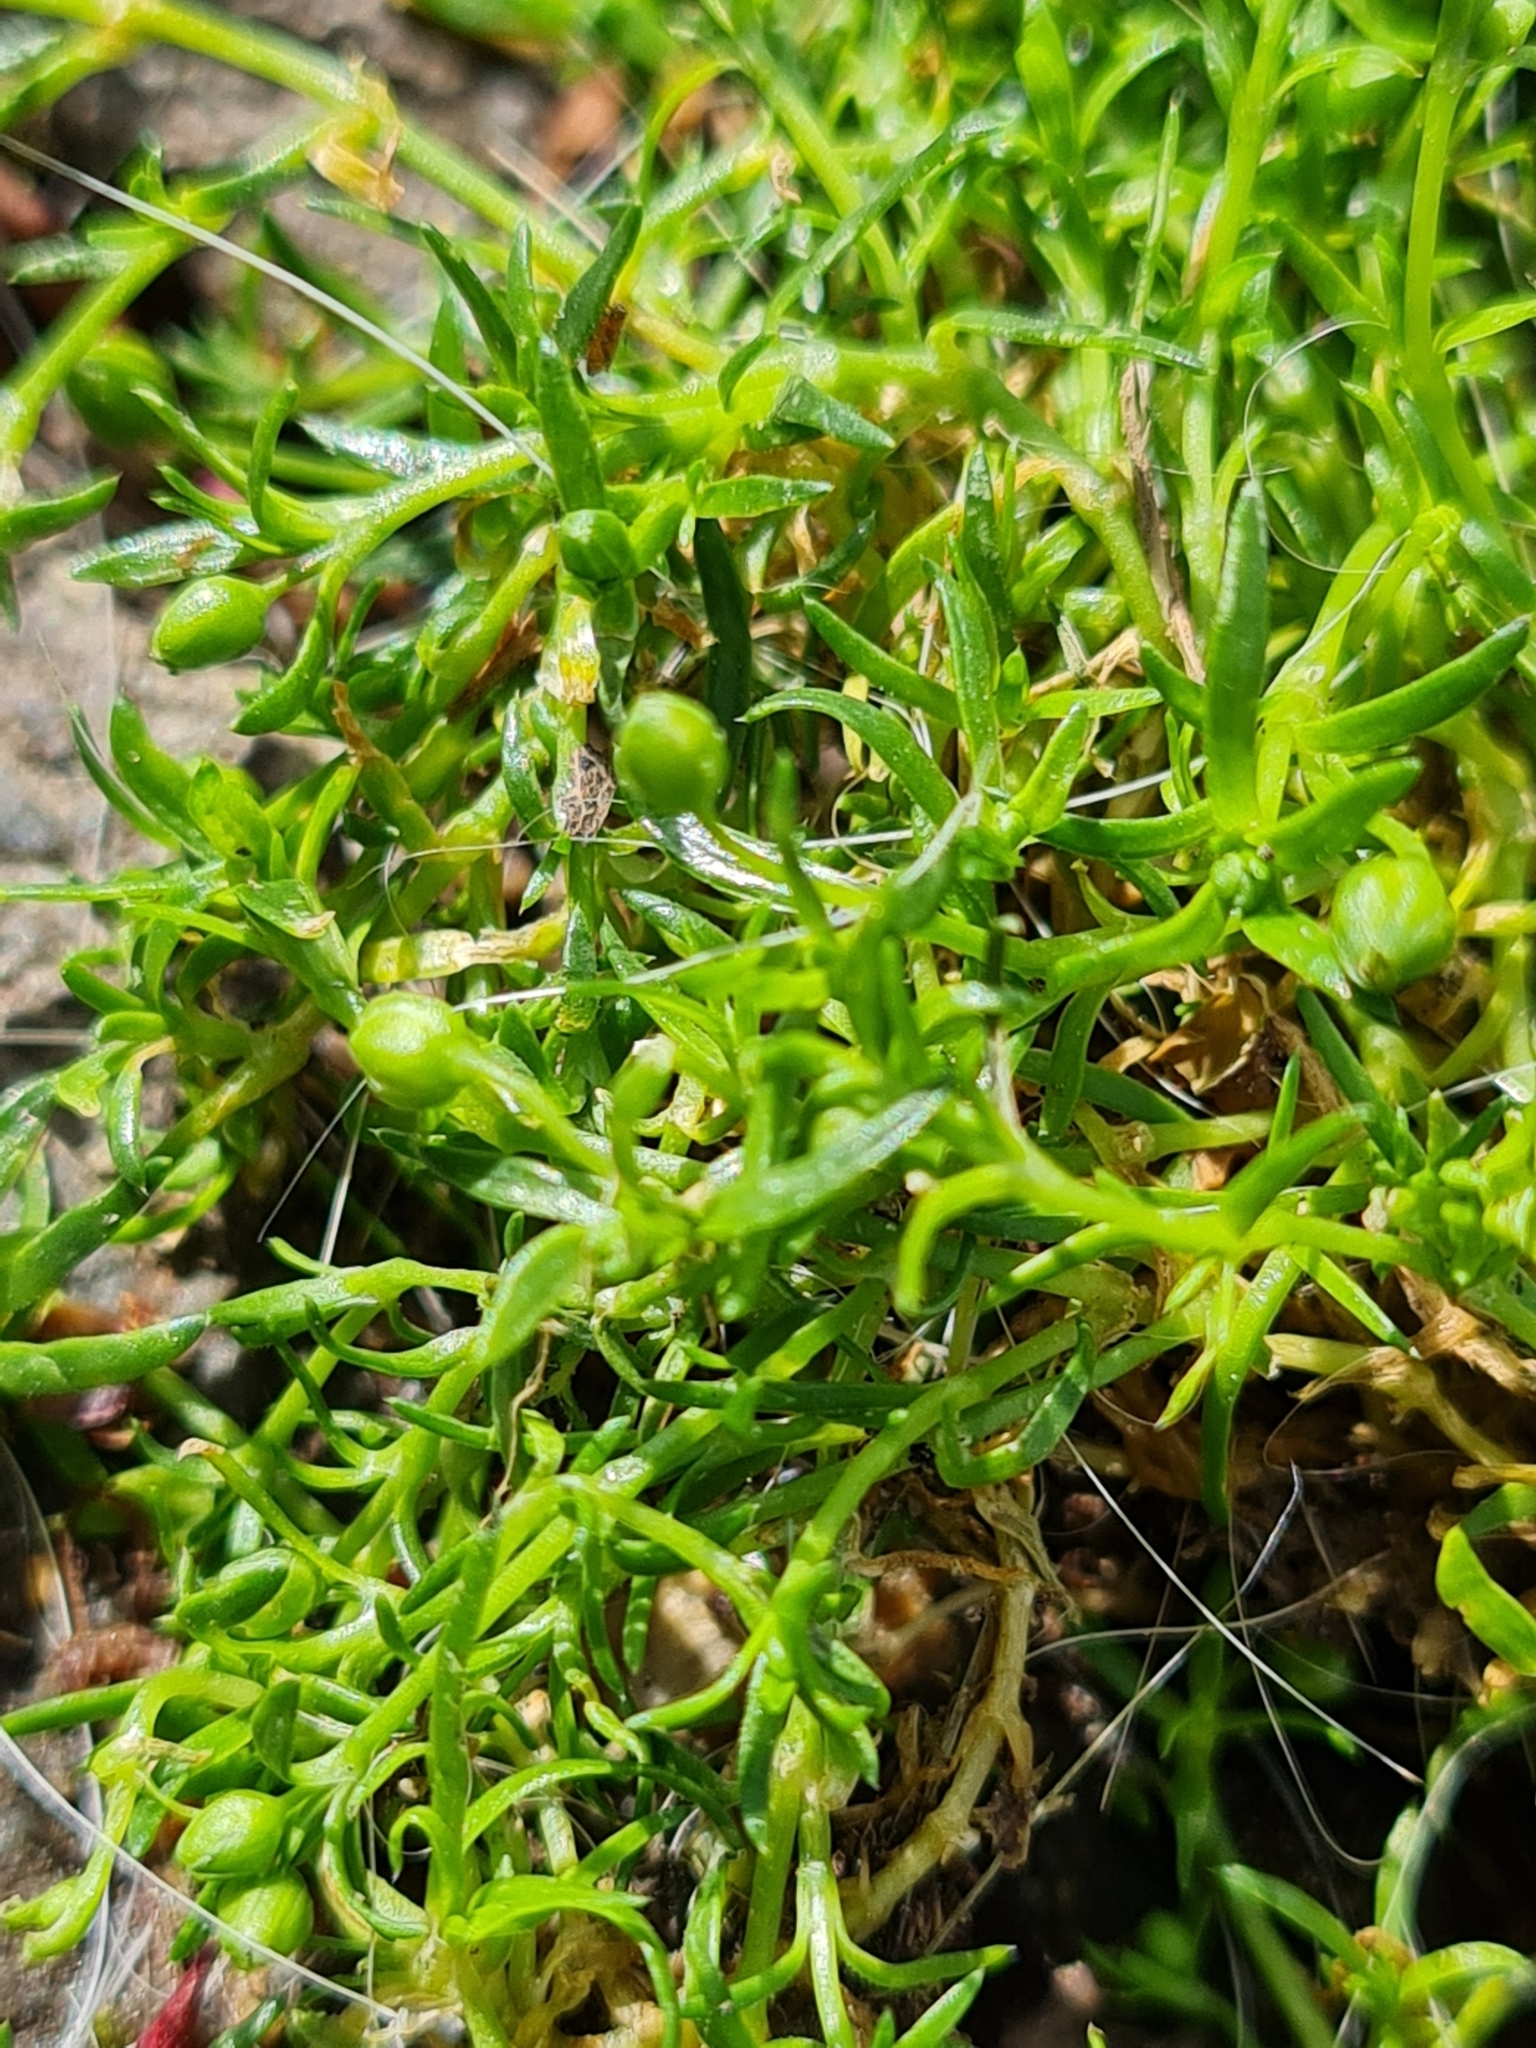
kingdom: Plantae
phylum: Tracheophyta
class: Magnoliopsida
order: Caryophyllales
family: Caryophyllaceae
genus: Sagina
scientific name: Sagina procumbens
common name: Procumbent pearlwort
